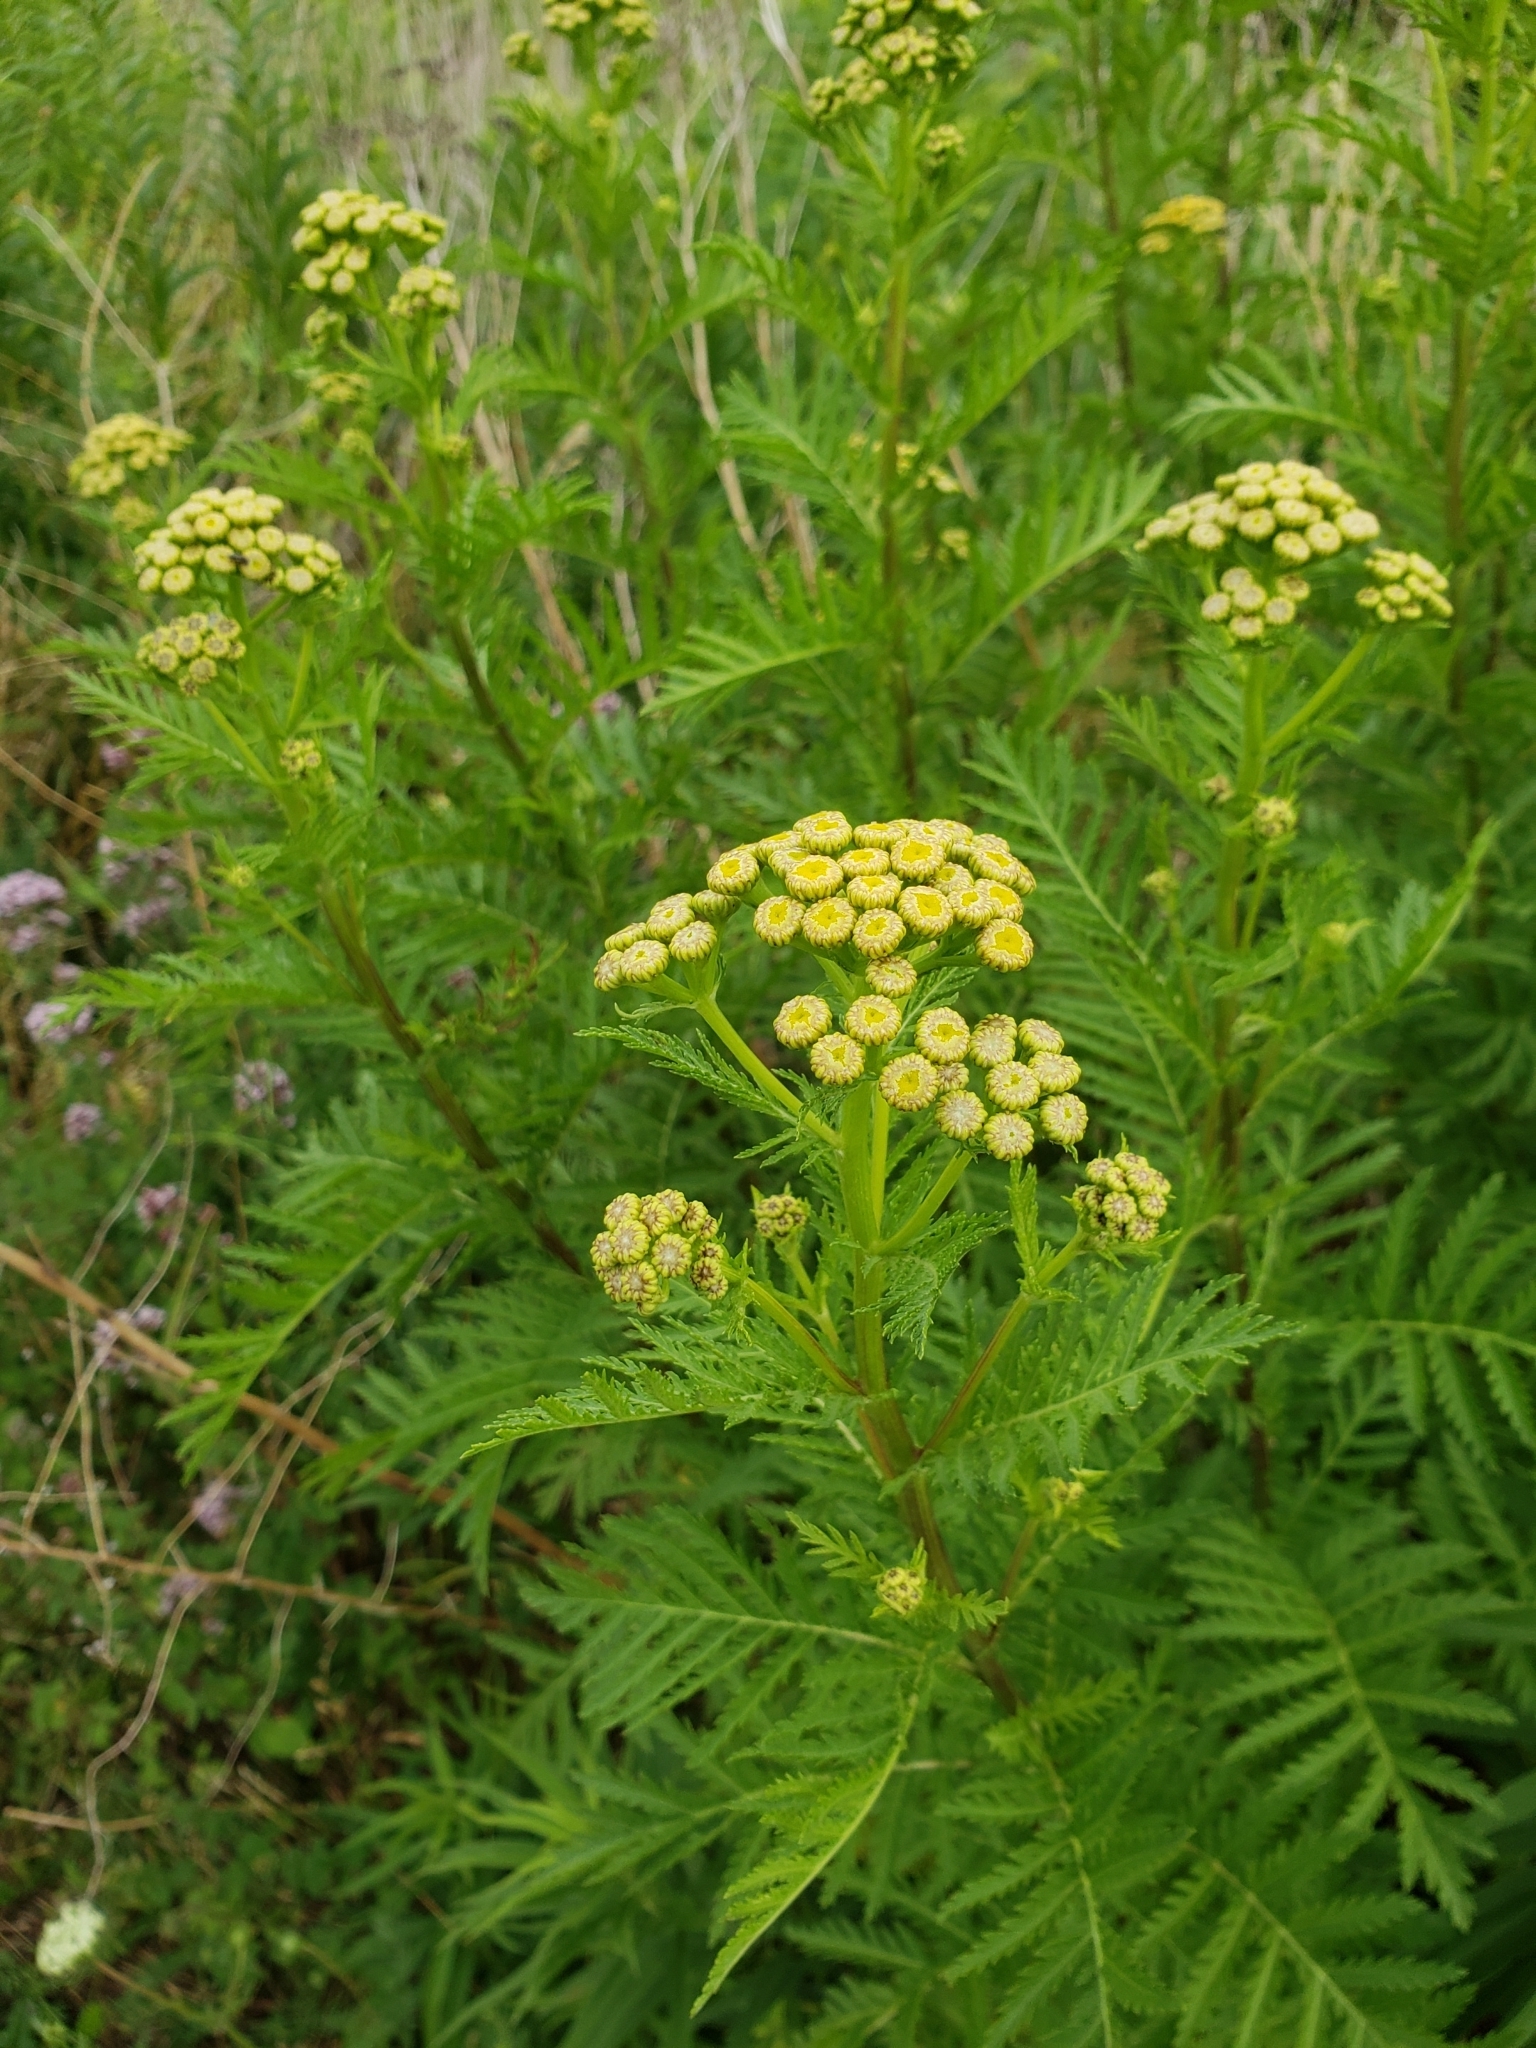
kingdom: Plantae
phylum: Tracheophyta
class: Magnoliopsida
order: Asterales
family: Asteraceae
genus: Tanacetum
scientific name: Tanacetum vulgare
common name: Common tansy
